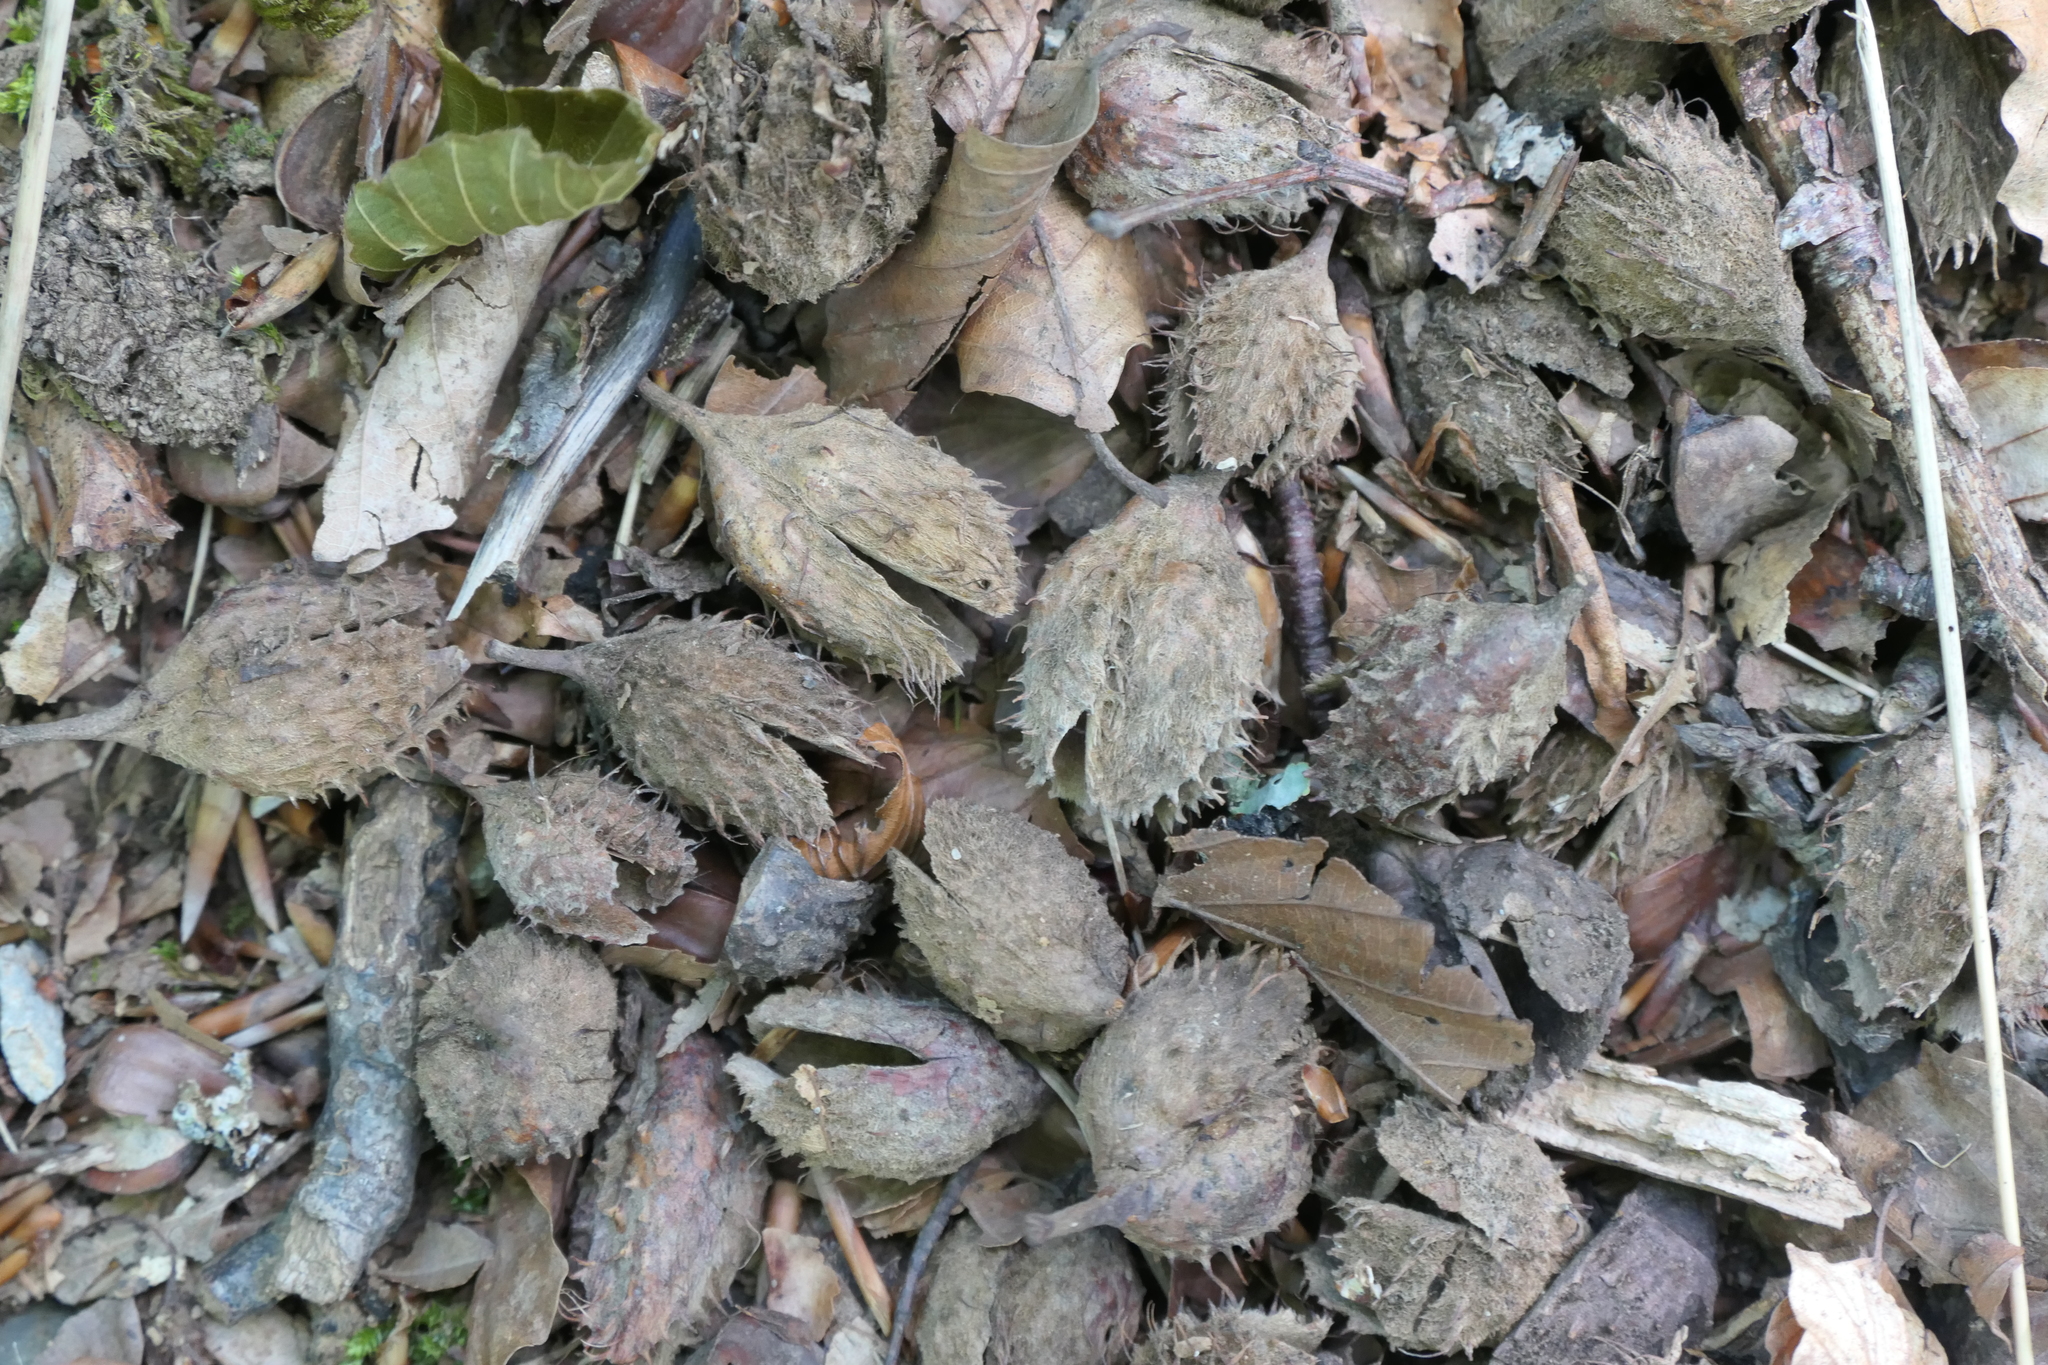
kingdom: Plantae
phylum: Tracheophyta
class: Magnoliopsida
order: Fagales
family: Fagaceae
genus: Fagus
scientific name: Fagus sylvatica
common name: Beech
